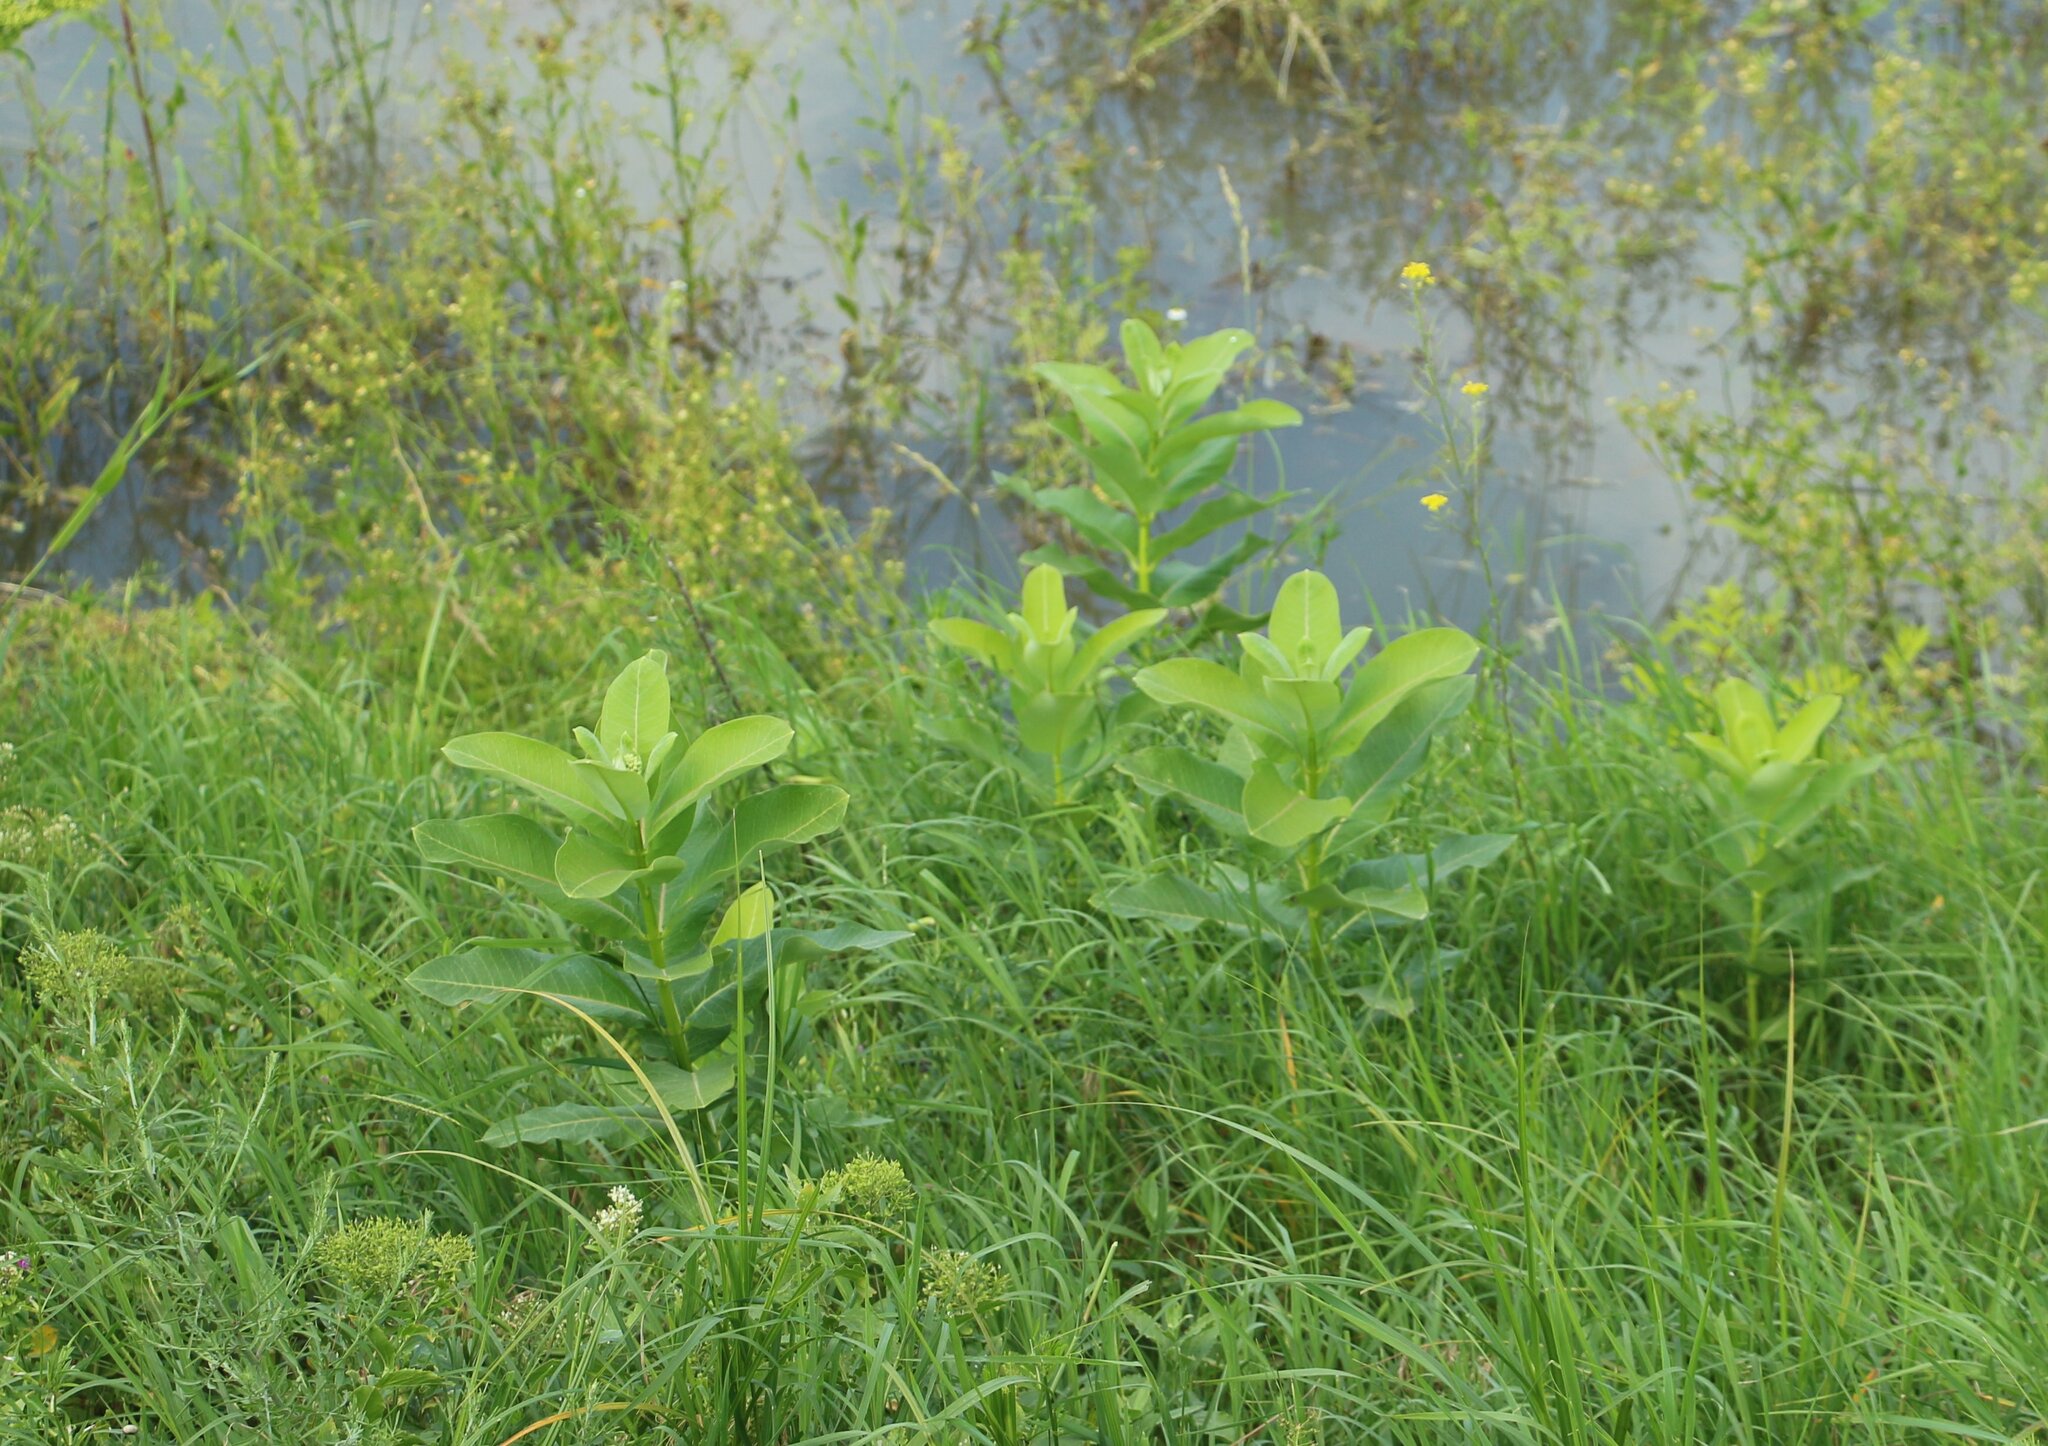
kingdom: Plantae
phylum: Tracheophyta
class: Magnoliopsida
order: Gentianales
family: Apocynaceae
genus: Asclepias
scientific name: Asclepias syriaca
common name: Common milkweed
